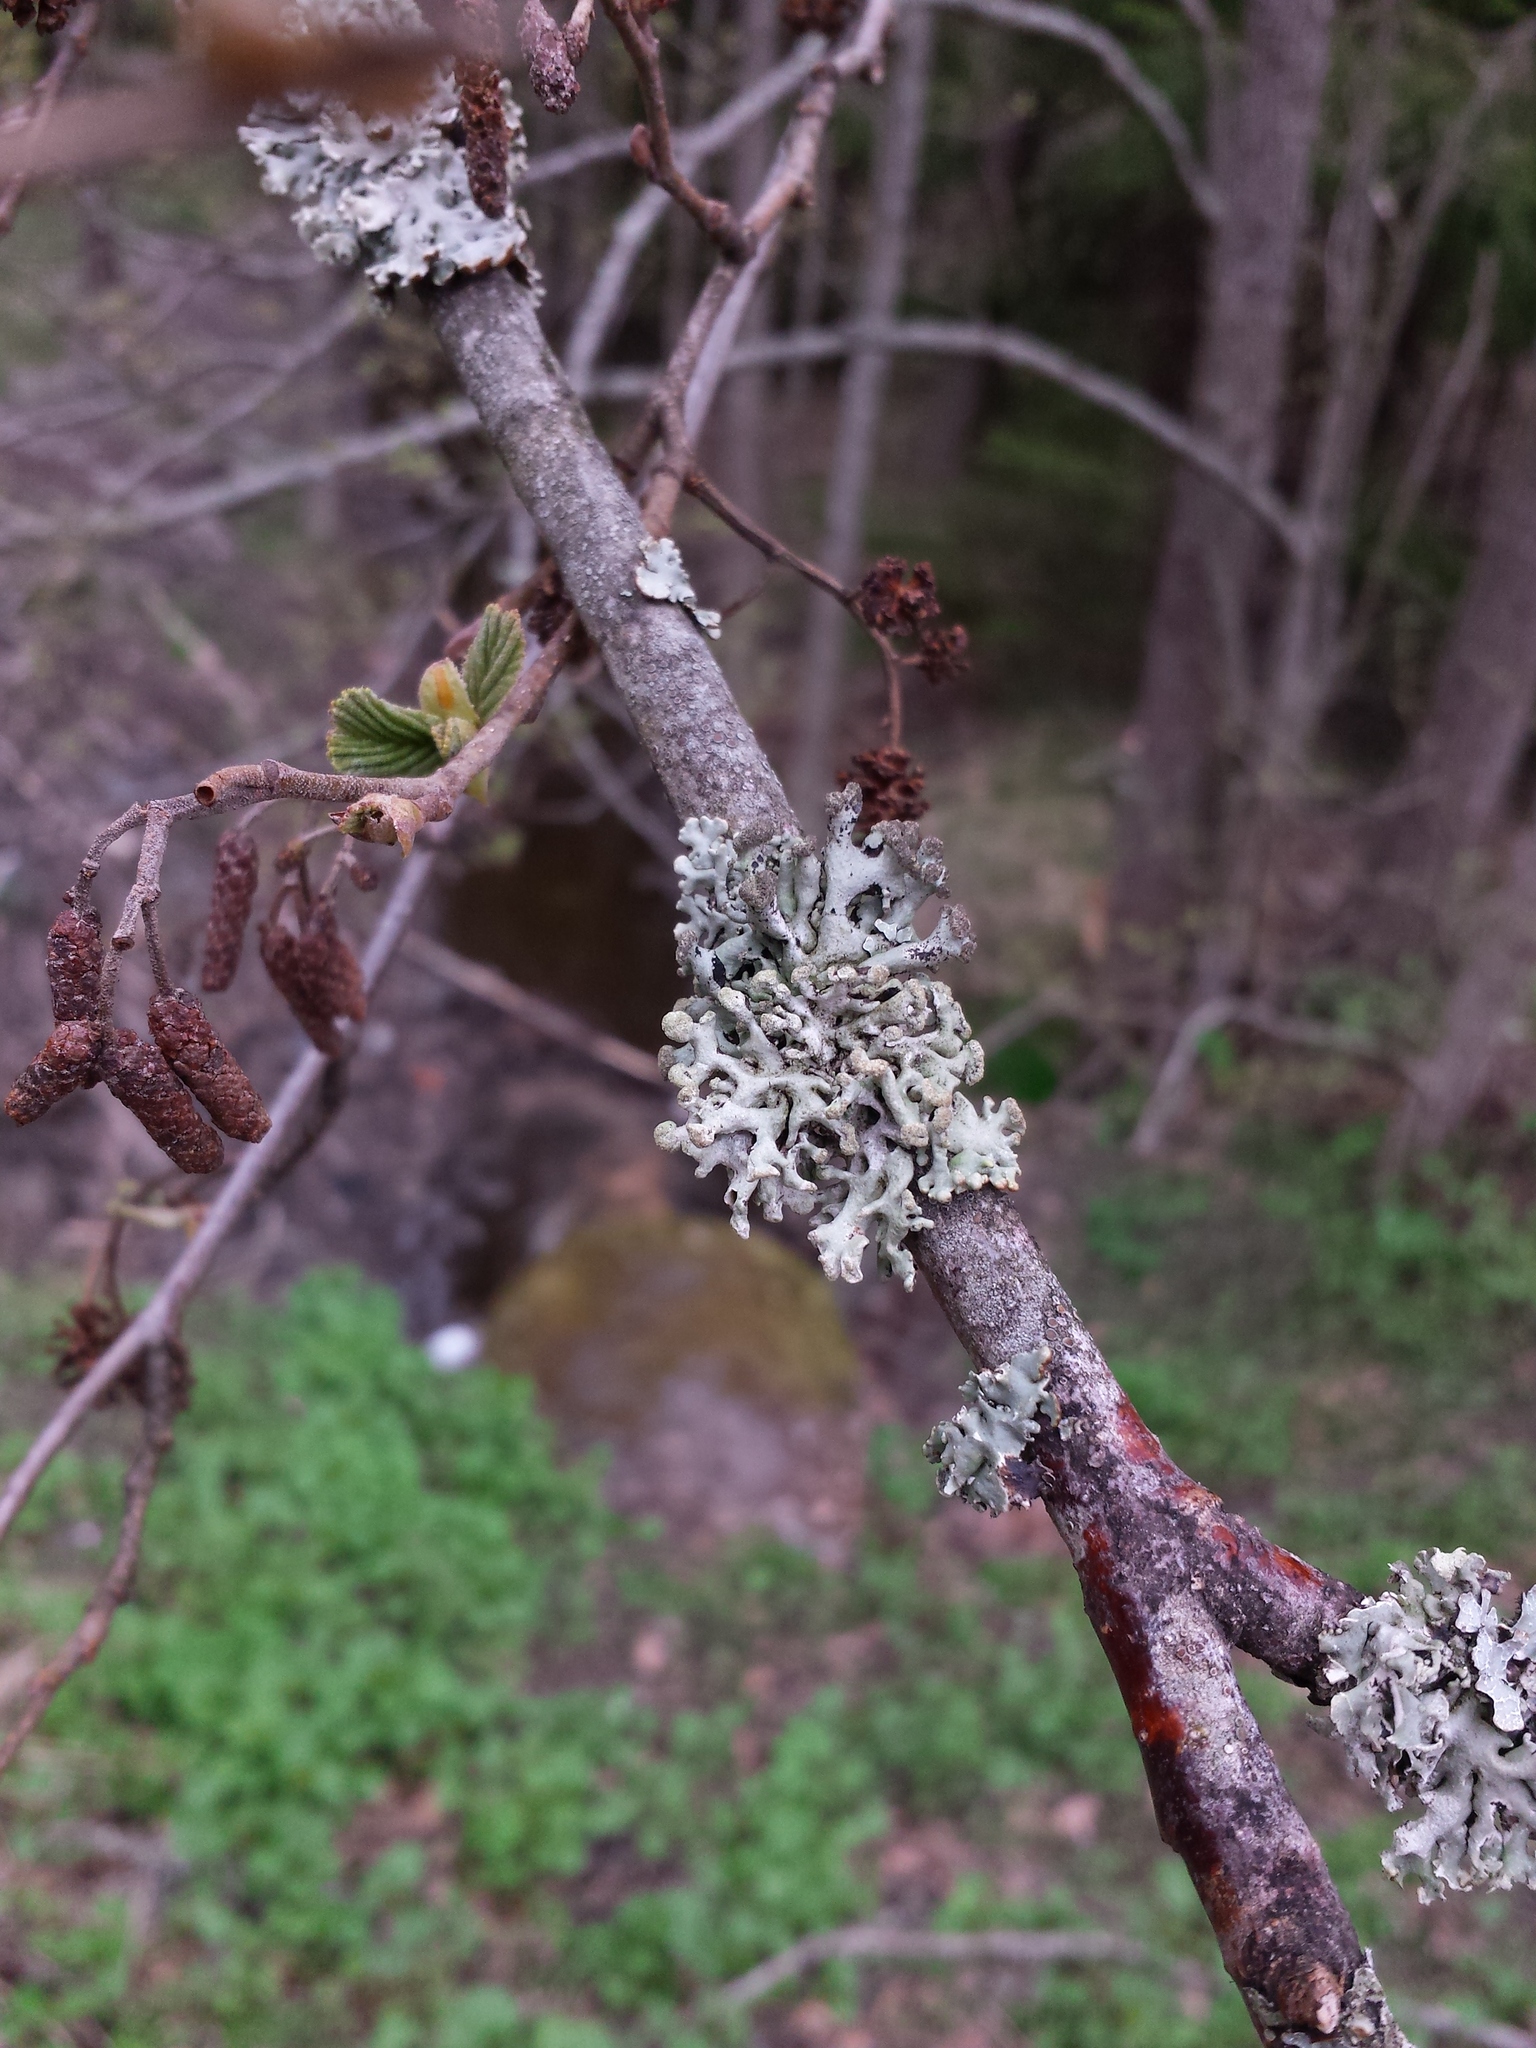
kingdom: Fungi
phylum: Ascomycota
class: Lecanoromycetes
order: Lecanorales
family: Parmeliaceae
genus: Hypogymnia
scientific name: Hypogymnia tubulosa
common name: Powder-headed tube lichen
